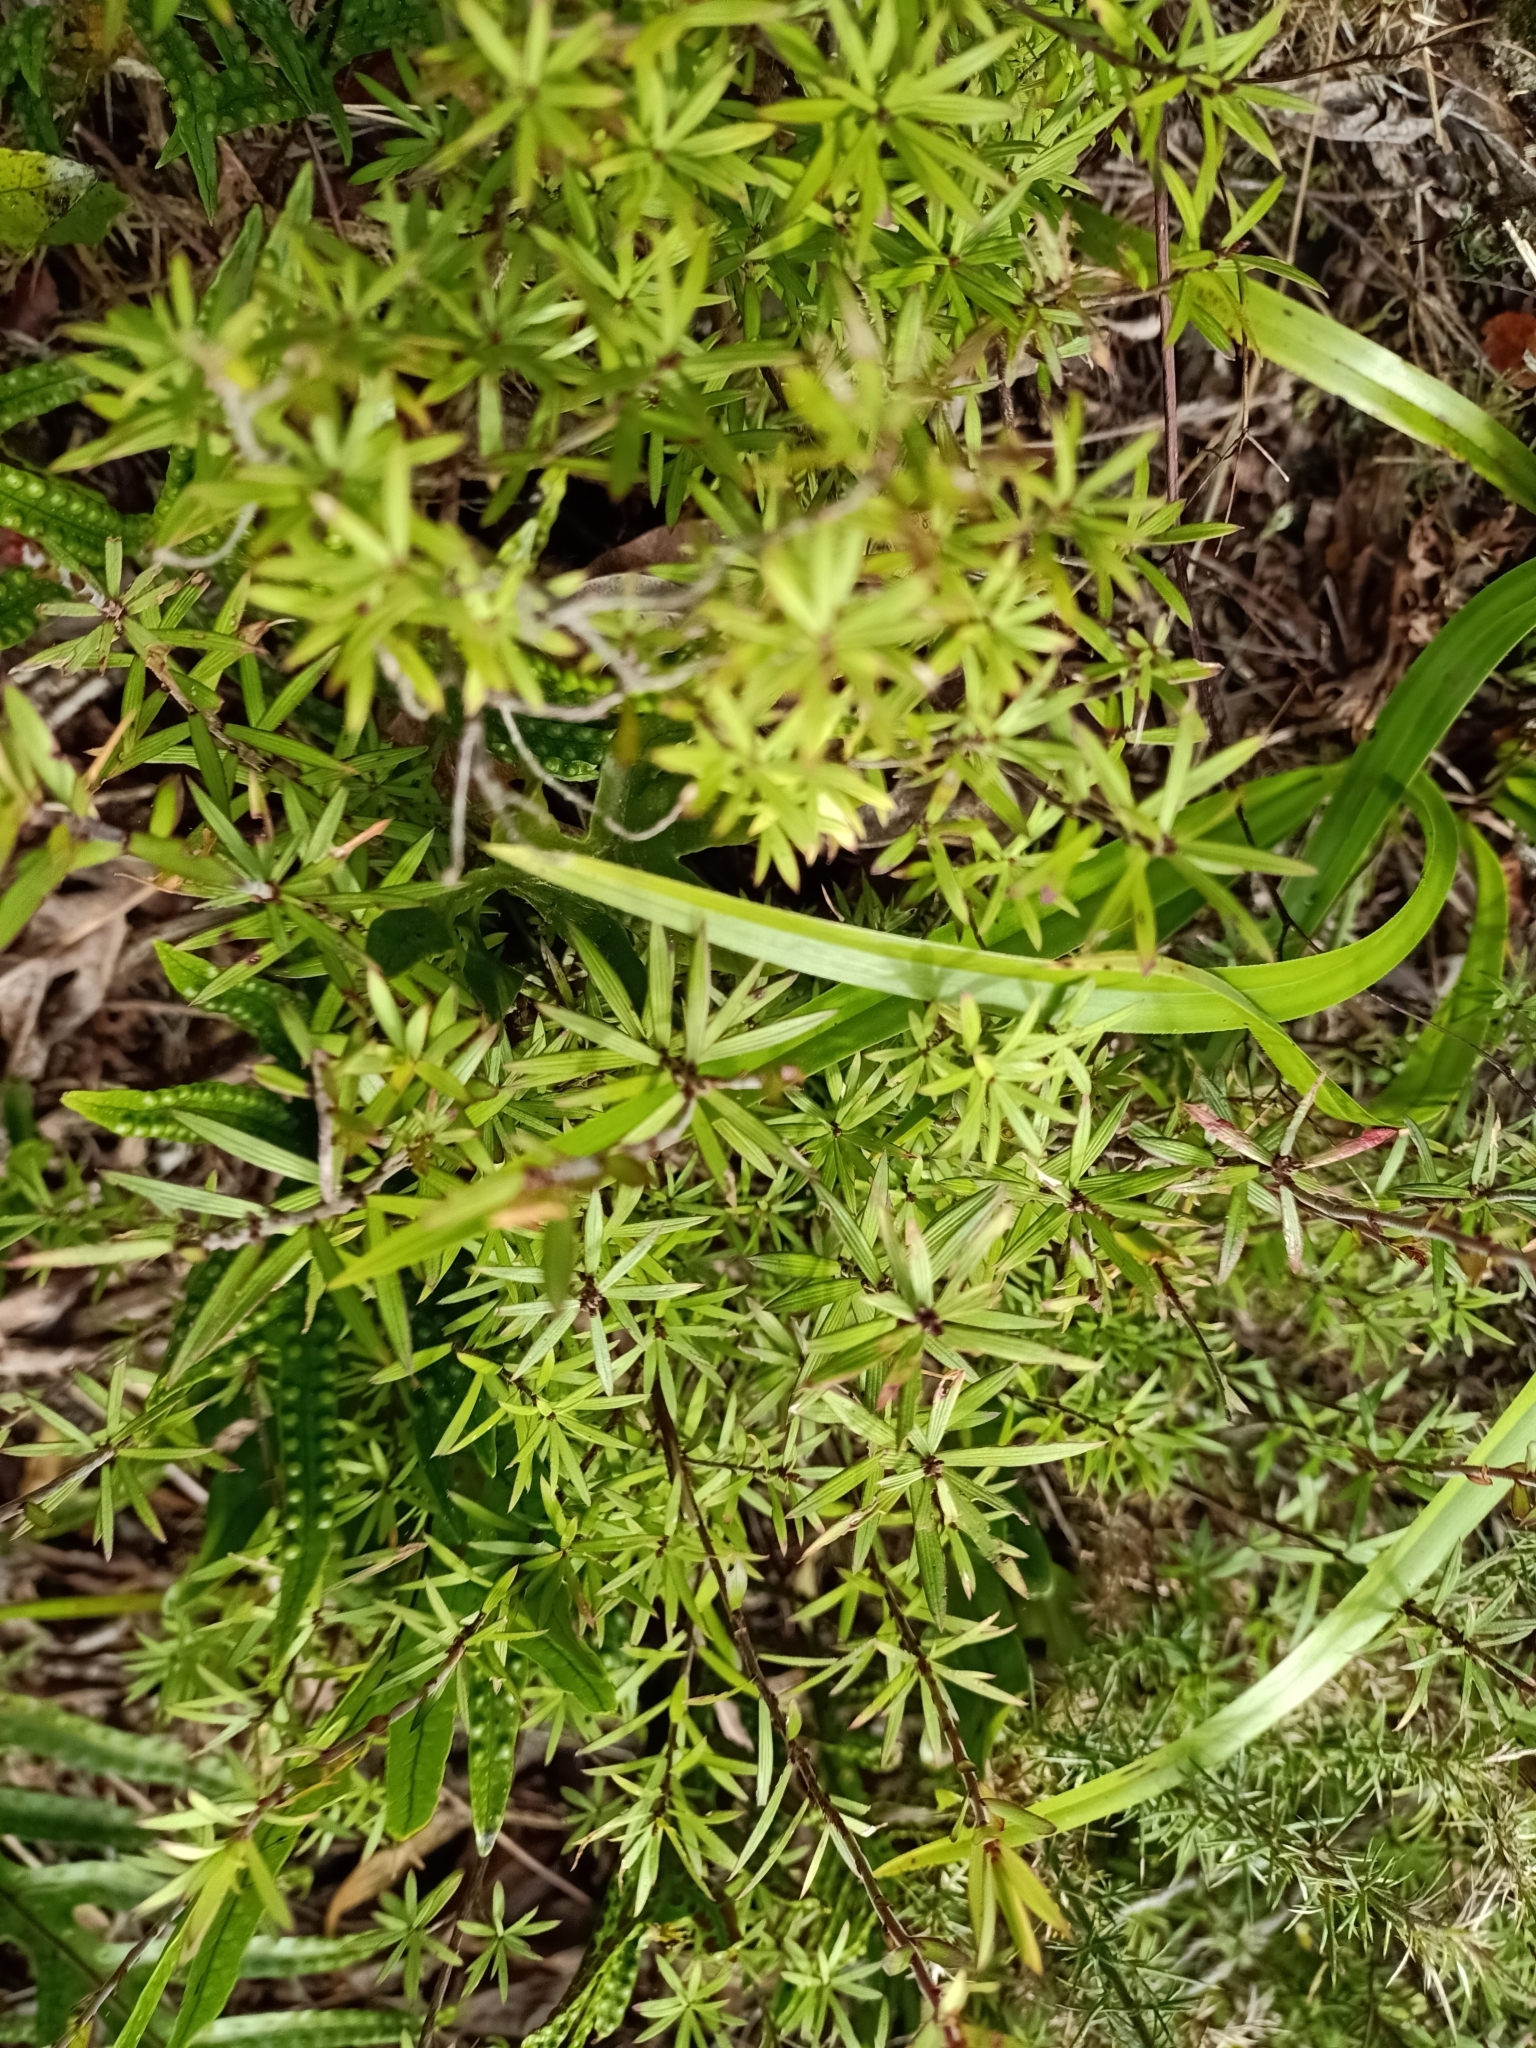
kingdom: Plantae
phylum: Tracheophyta
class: Magnoliopsida
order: Ericales
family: Ericaceae
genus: Leucopogon
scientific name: Leucopogon fasciculatus
